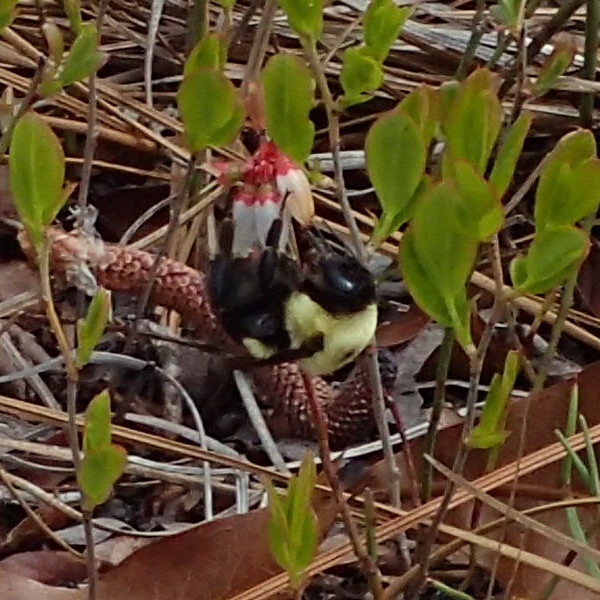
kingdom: Animalia
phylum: Arthropoda
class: Insecta
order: Hymenoptera
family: Apidae
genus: Bombus
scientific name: Bombus griseocollis
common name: Brown-belted bumble bee
